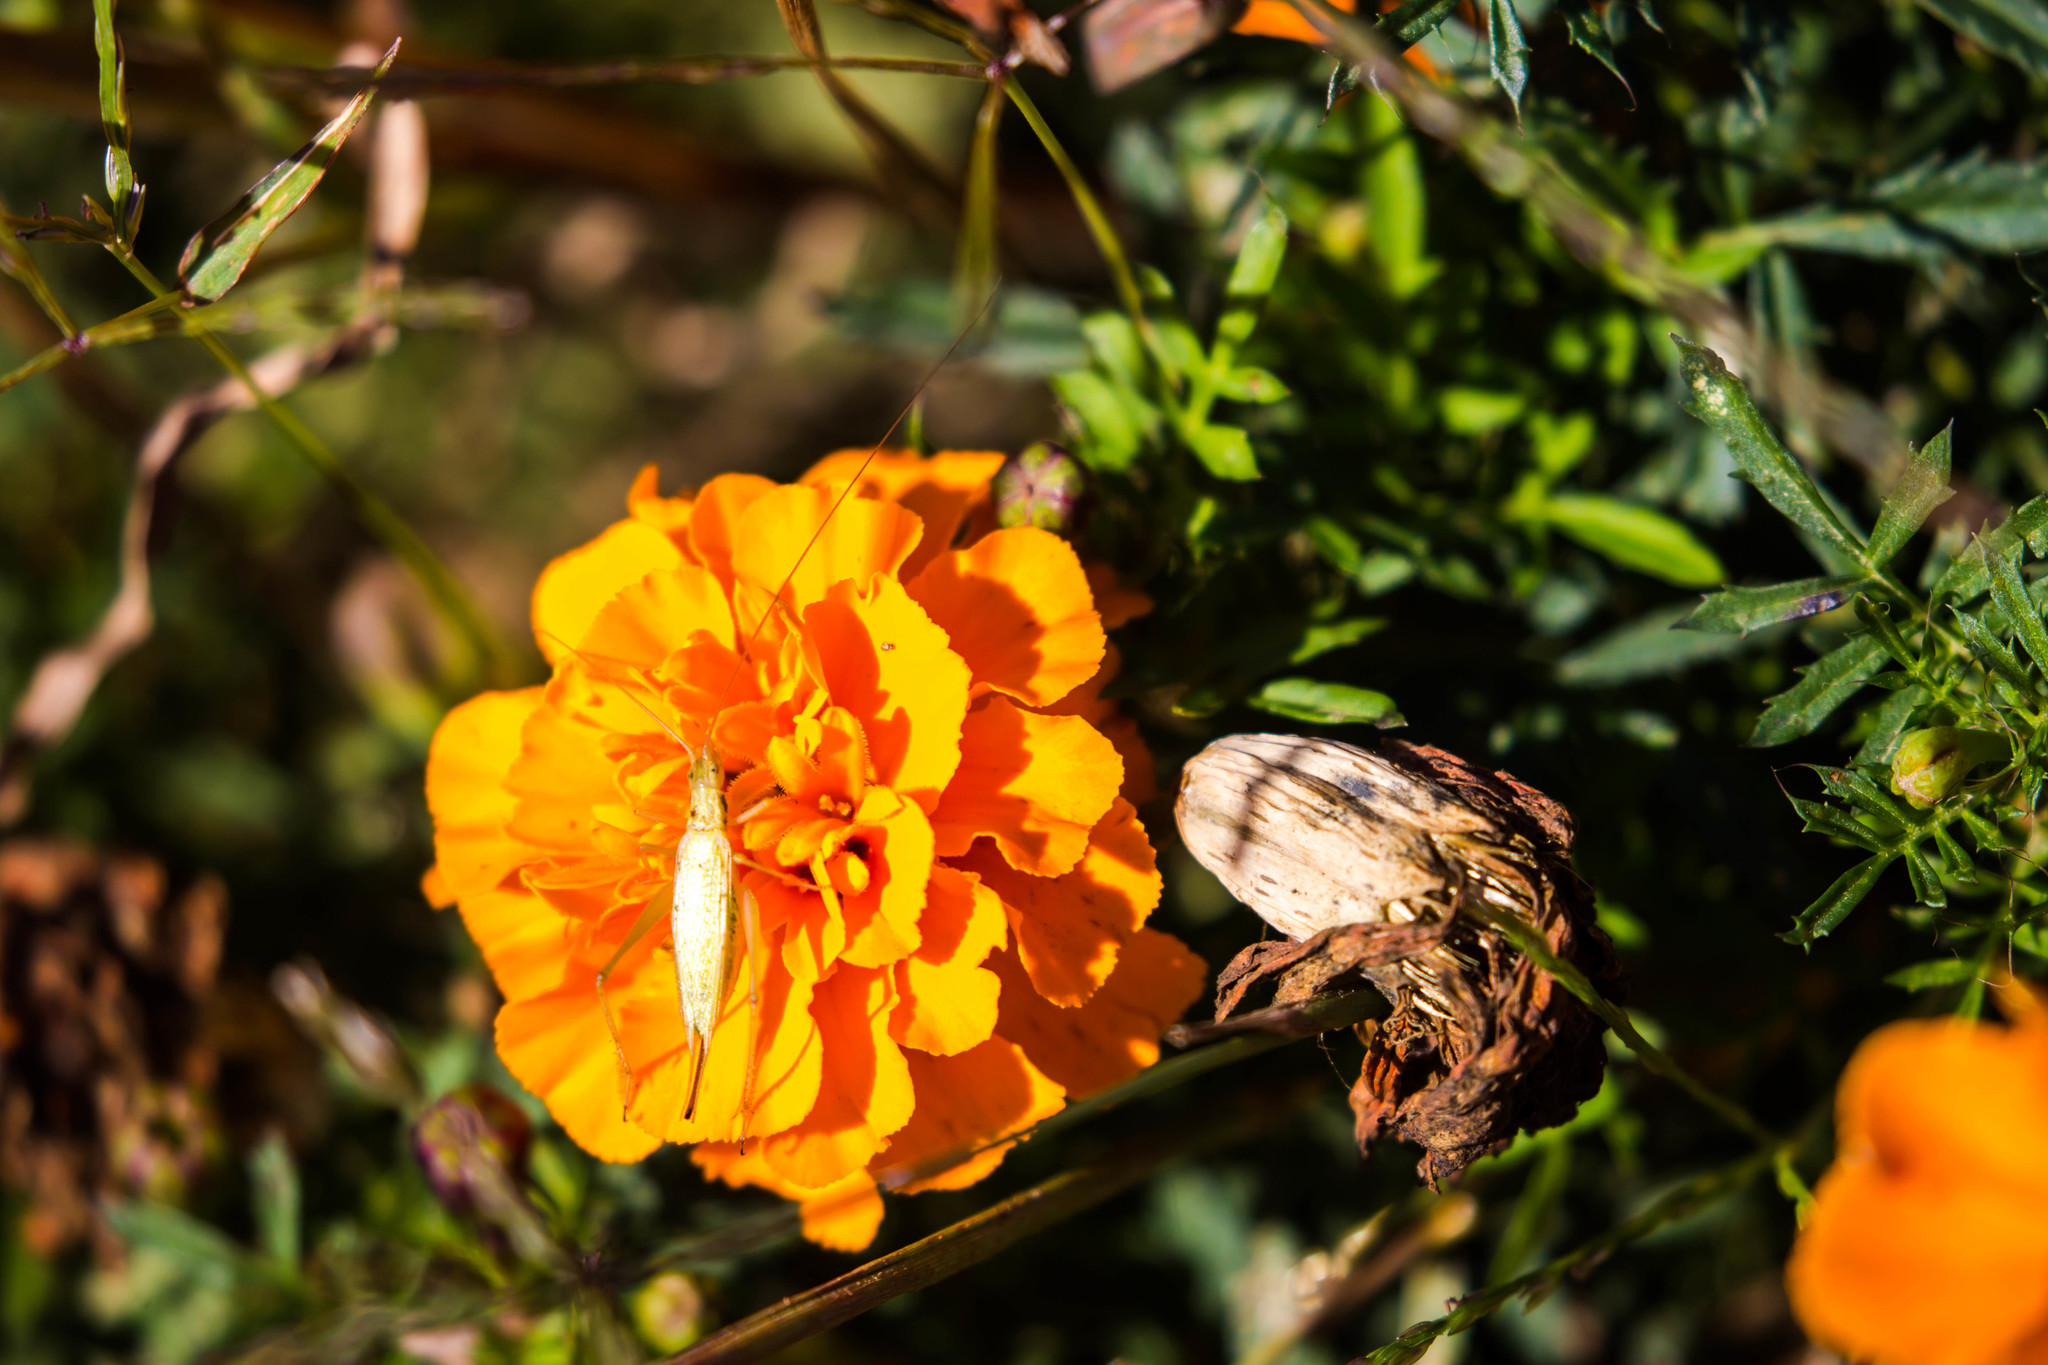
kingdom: Animalia
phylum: Arthropoda
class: Insecta
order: Orthoptera
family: Gryllidae
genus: Oecanthus
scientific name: Oecanthus celerinictus
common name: Fast-calling tree cricket
